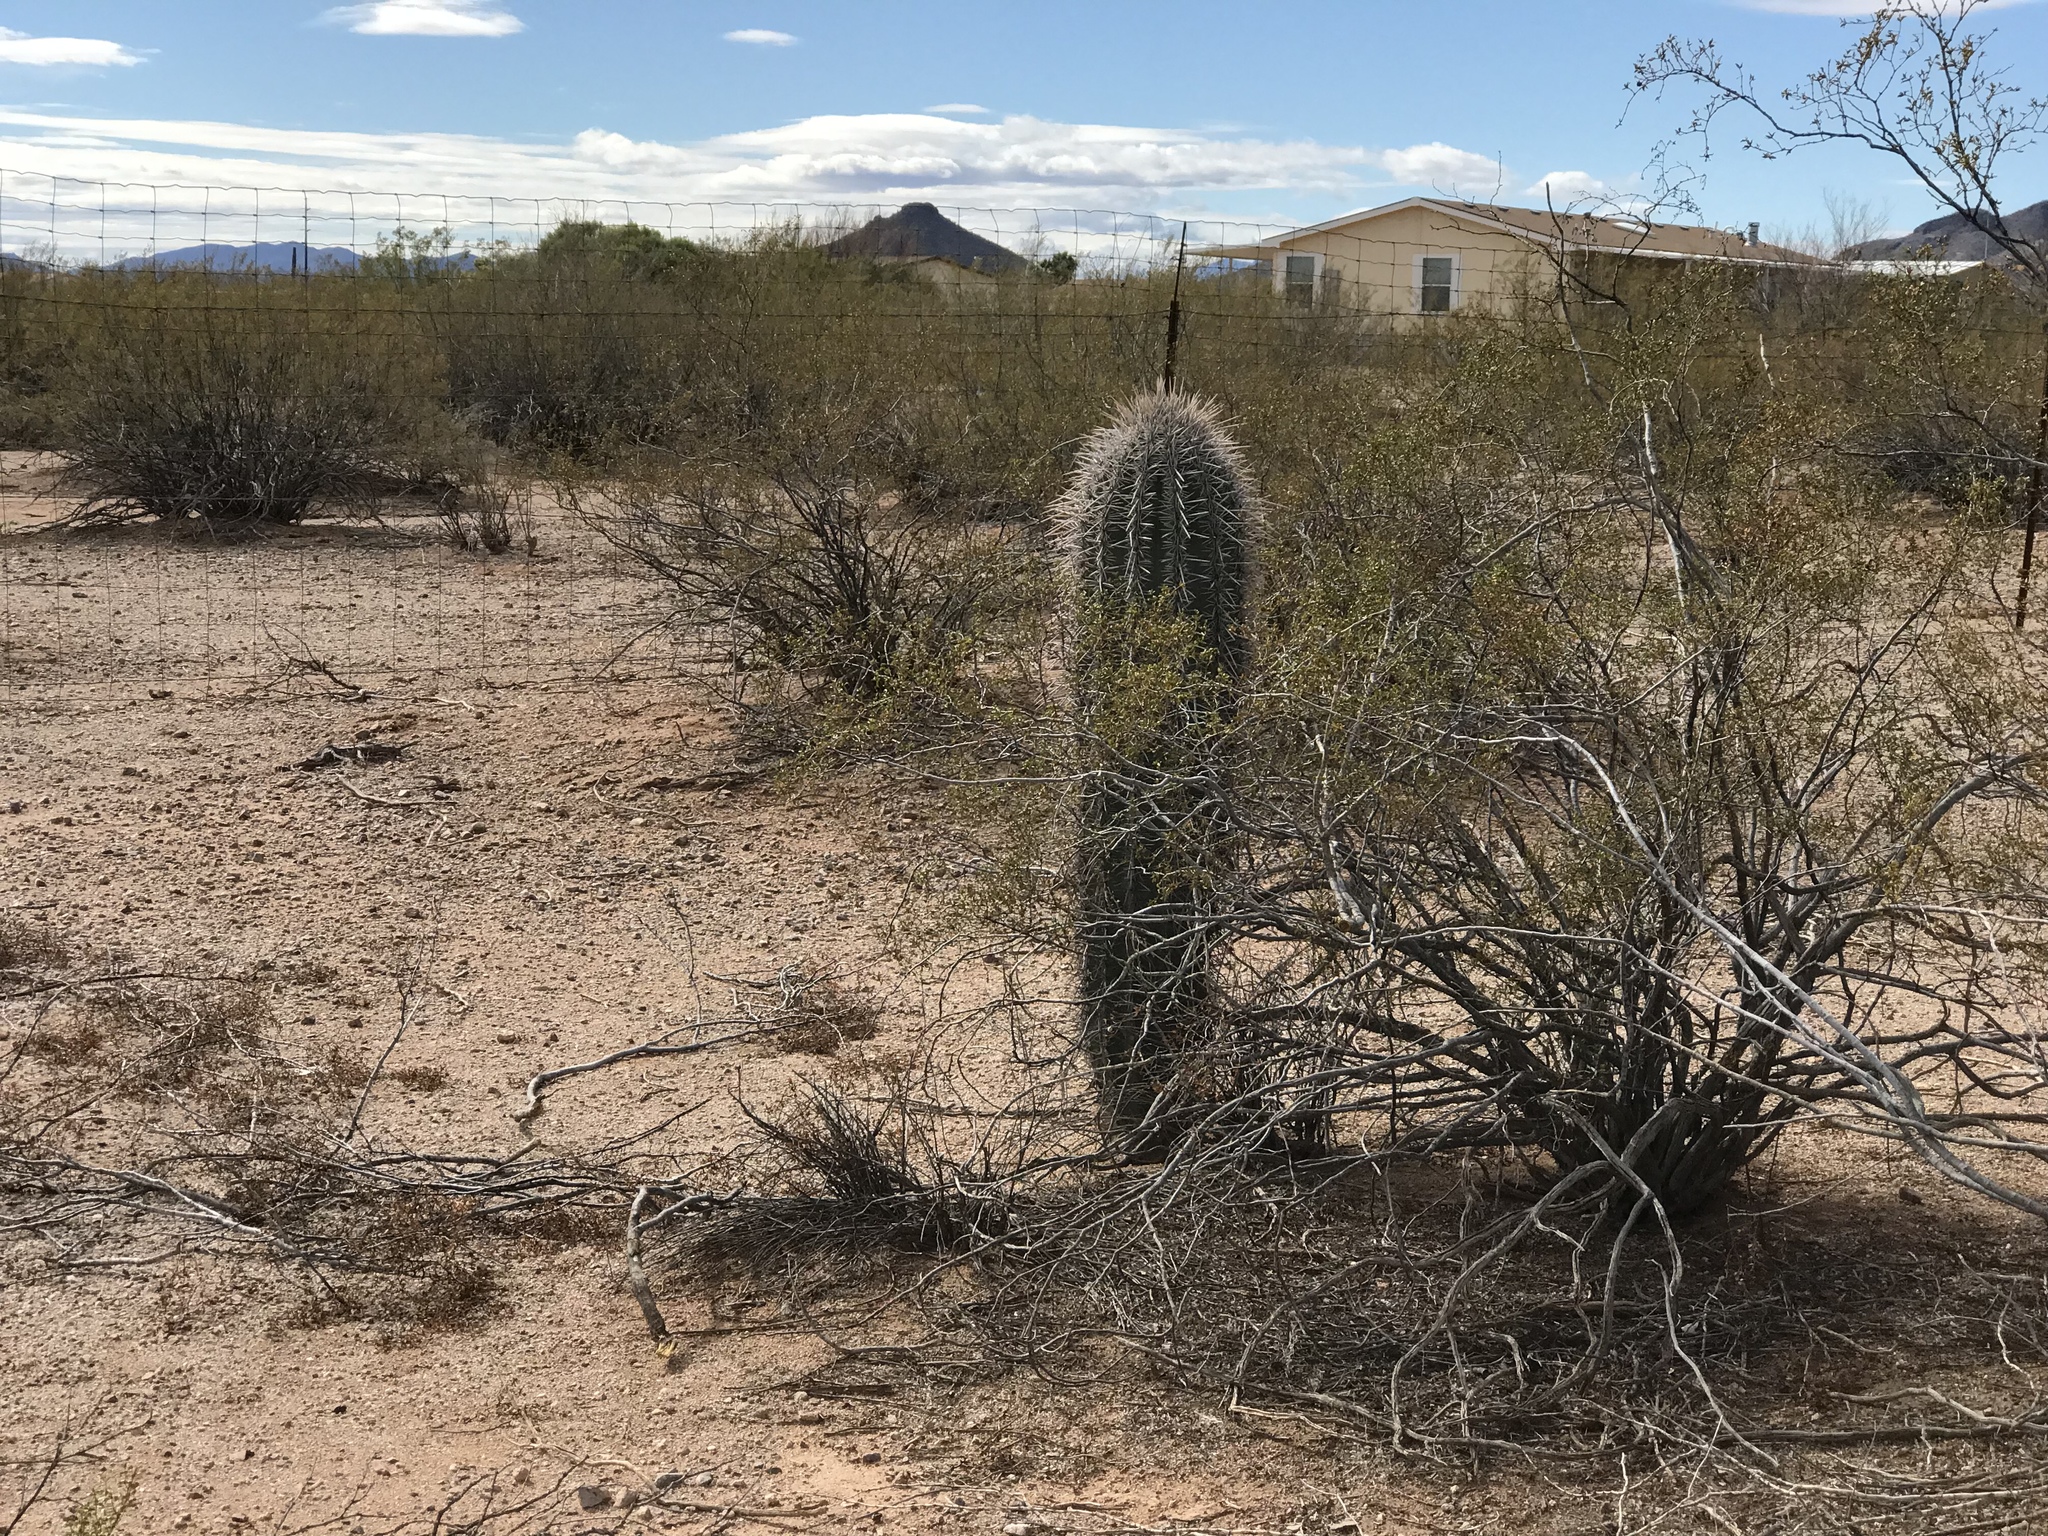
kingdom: Plantae
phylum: Tracheophyta
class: Magnoliopsida
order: Caryophyllales
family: Cactaceae
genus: Carnegiea
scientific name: Carnegiea gigantea
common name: Saguaro
